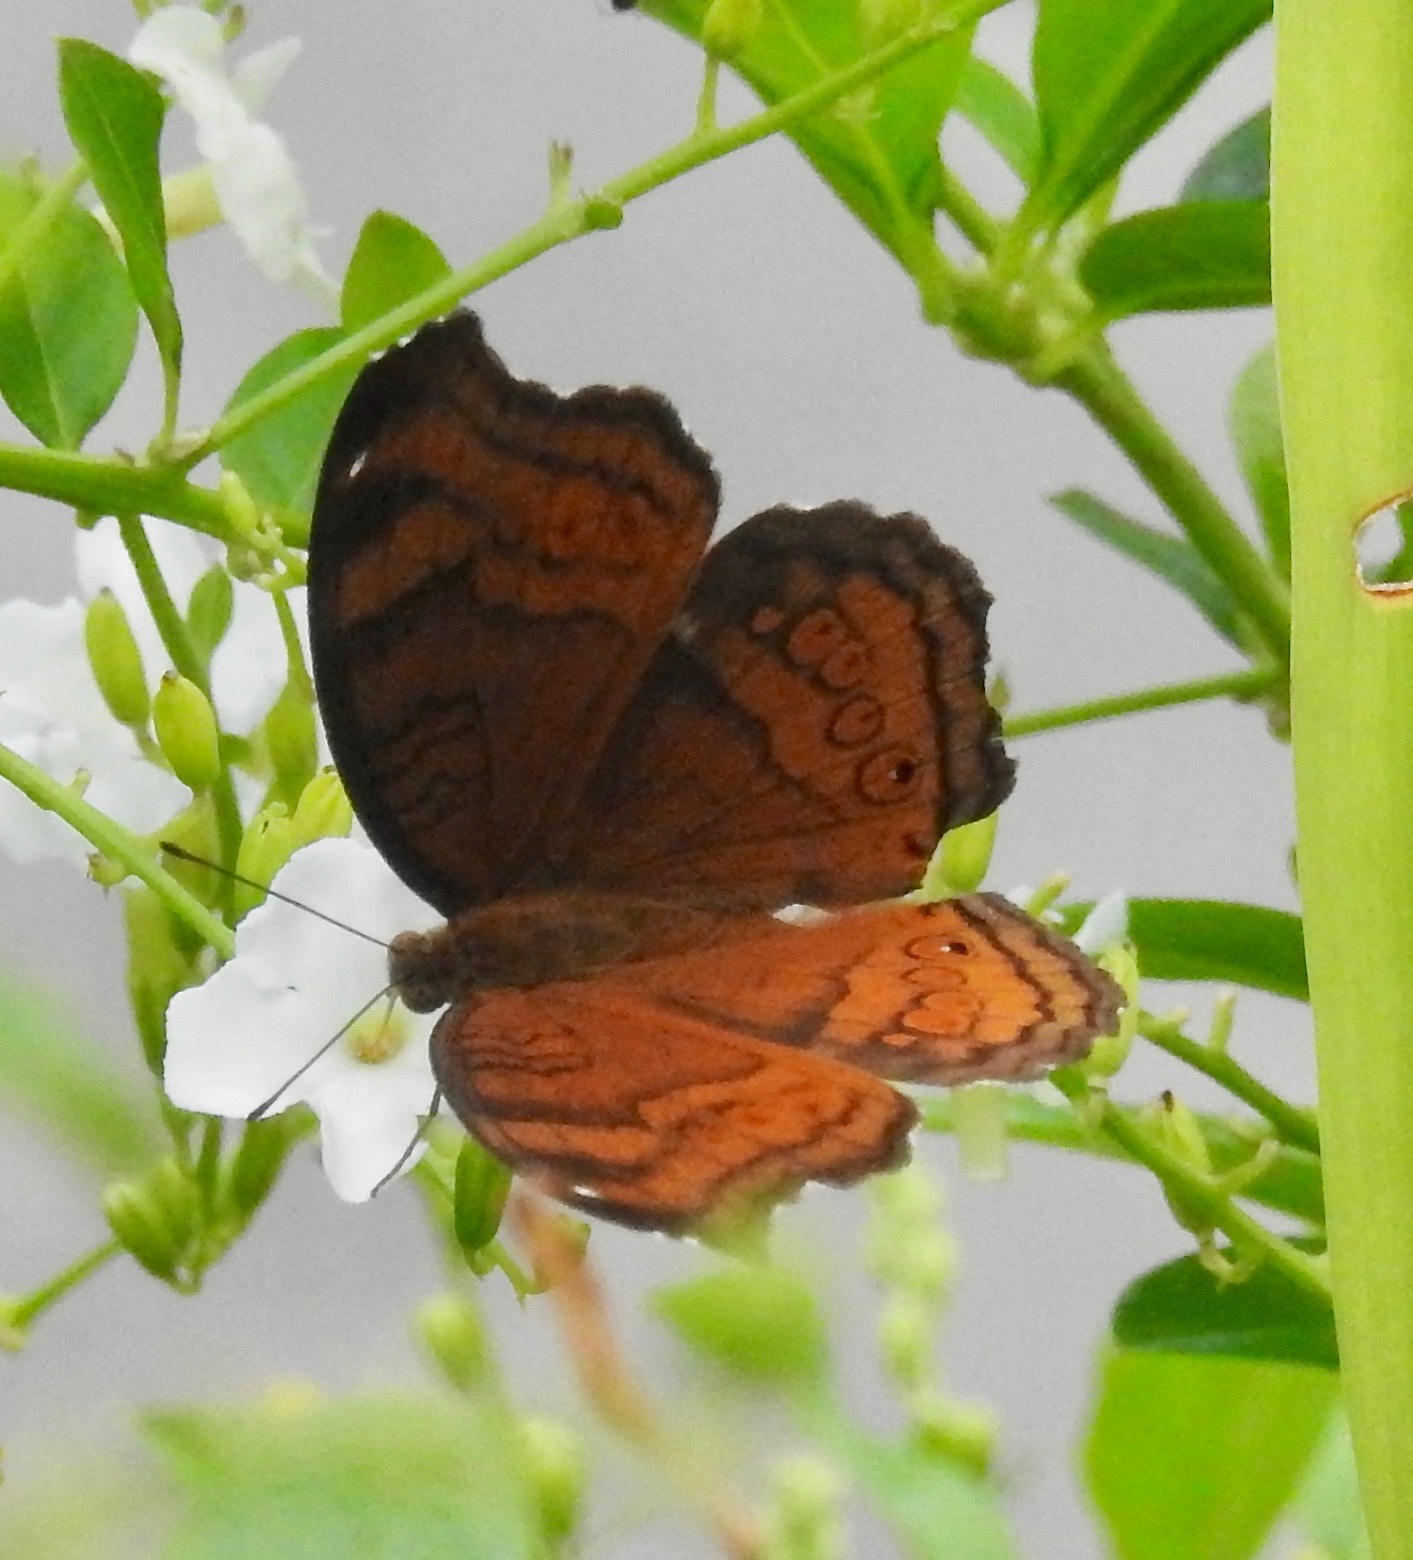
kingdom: Animalia
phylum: Arthropoda
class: Insecta
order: Lepidoptera
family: Nymphalidae
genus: Junonia
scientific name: Junonia hedonia
